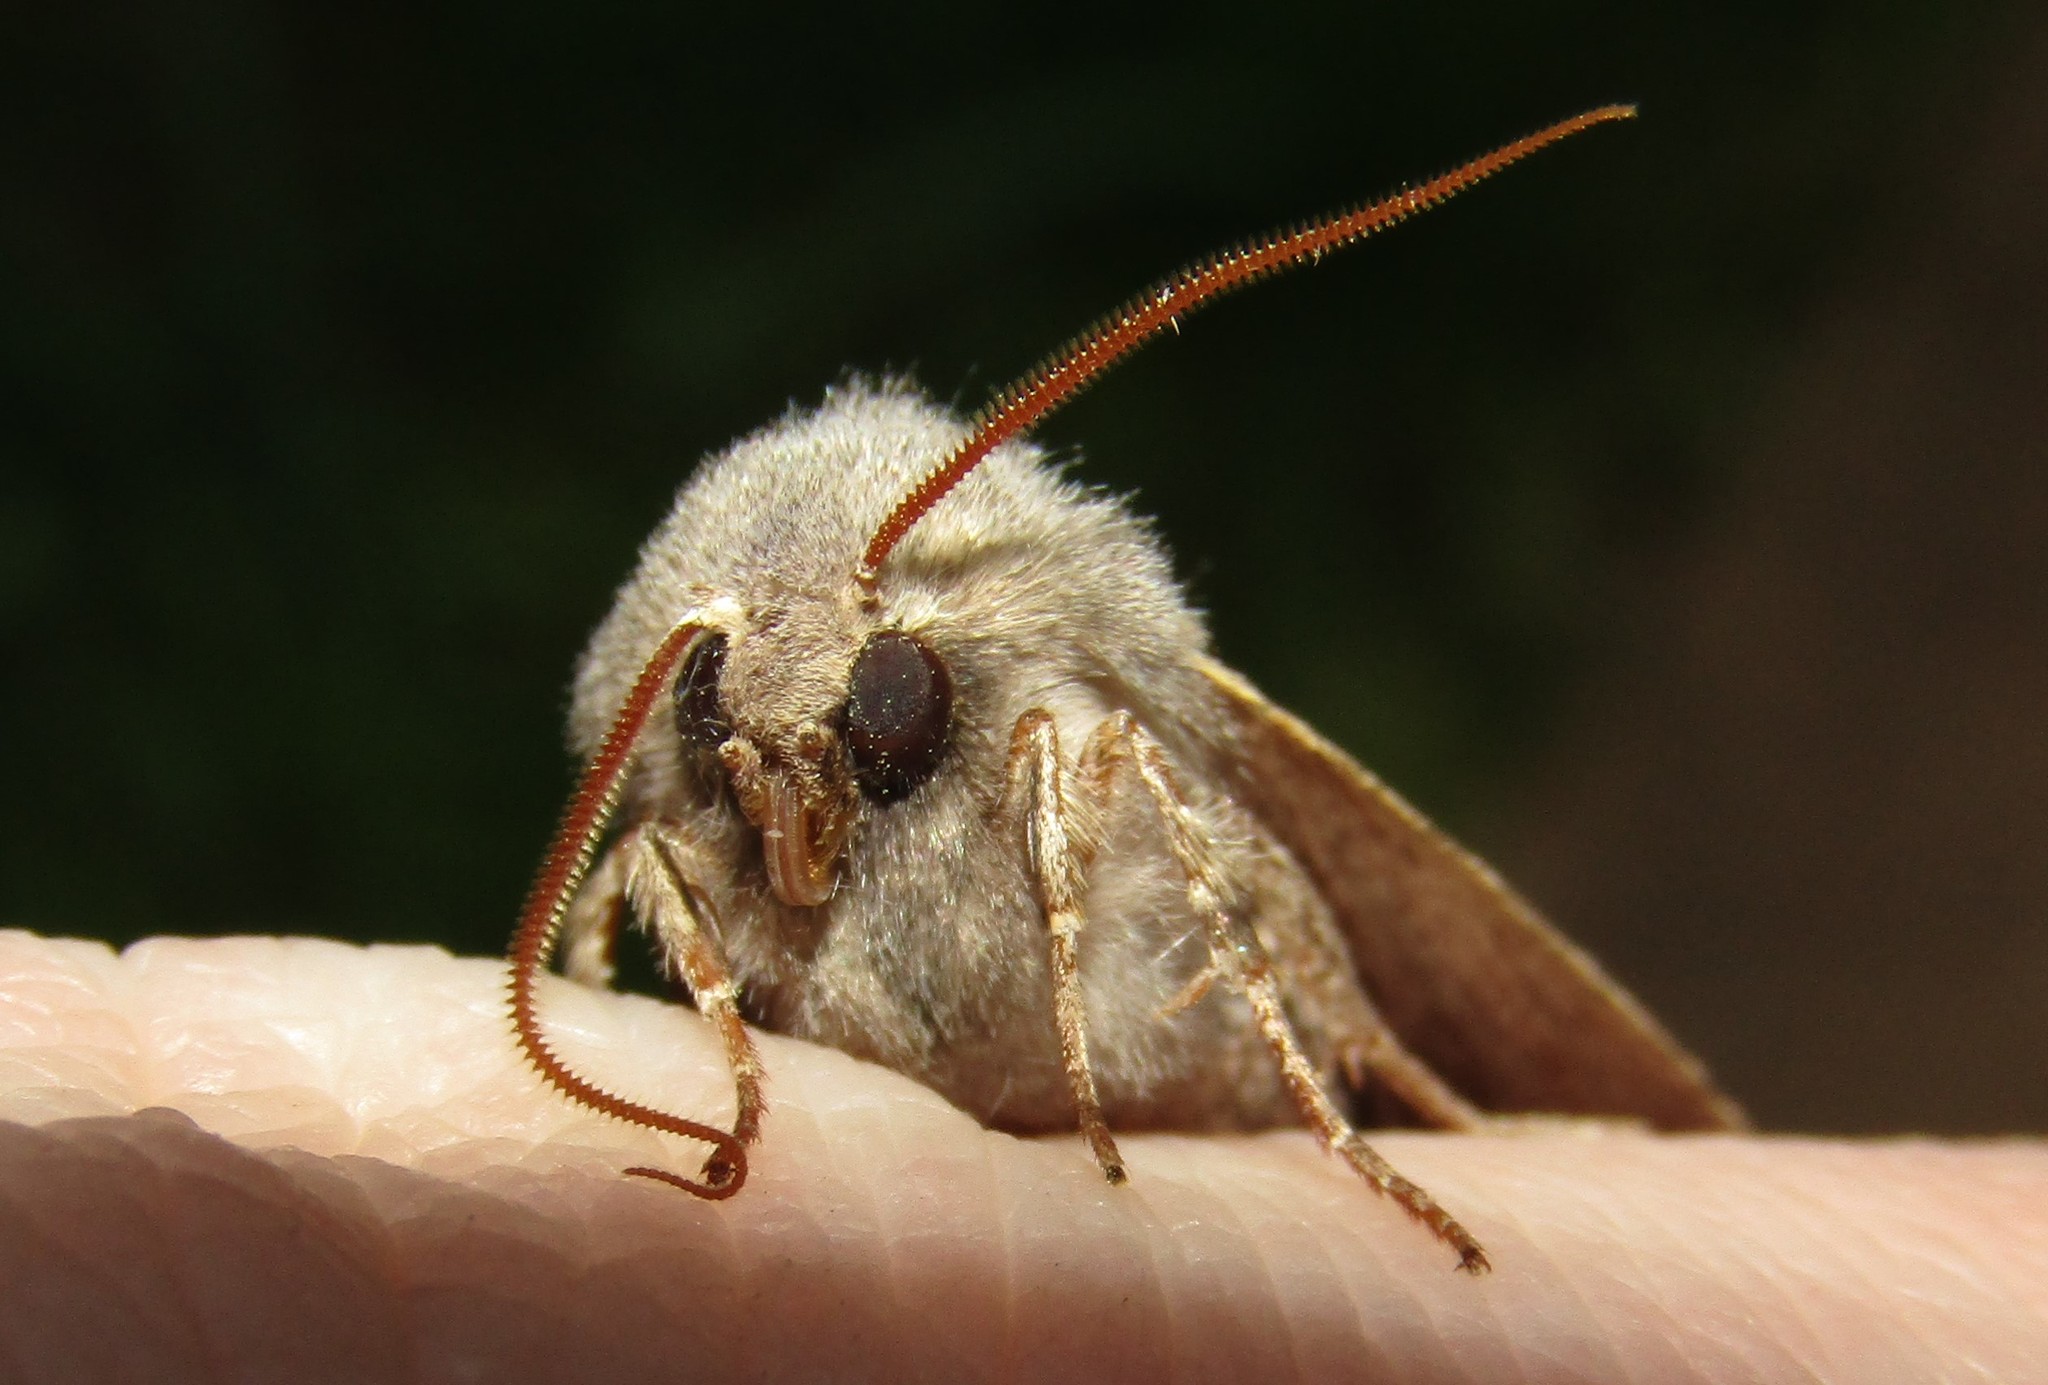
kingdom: Animalia
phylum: Arthropoda
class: Insecta
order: Lepidoptera
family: Noctuidae
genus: Orthosia
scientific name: Orthosia incerta
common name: Clouded drab
